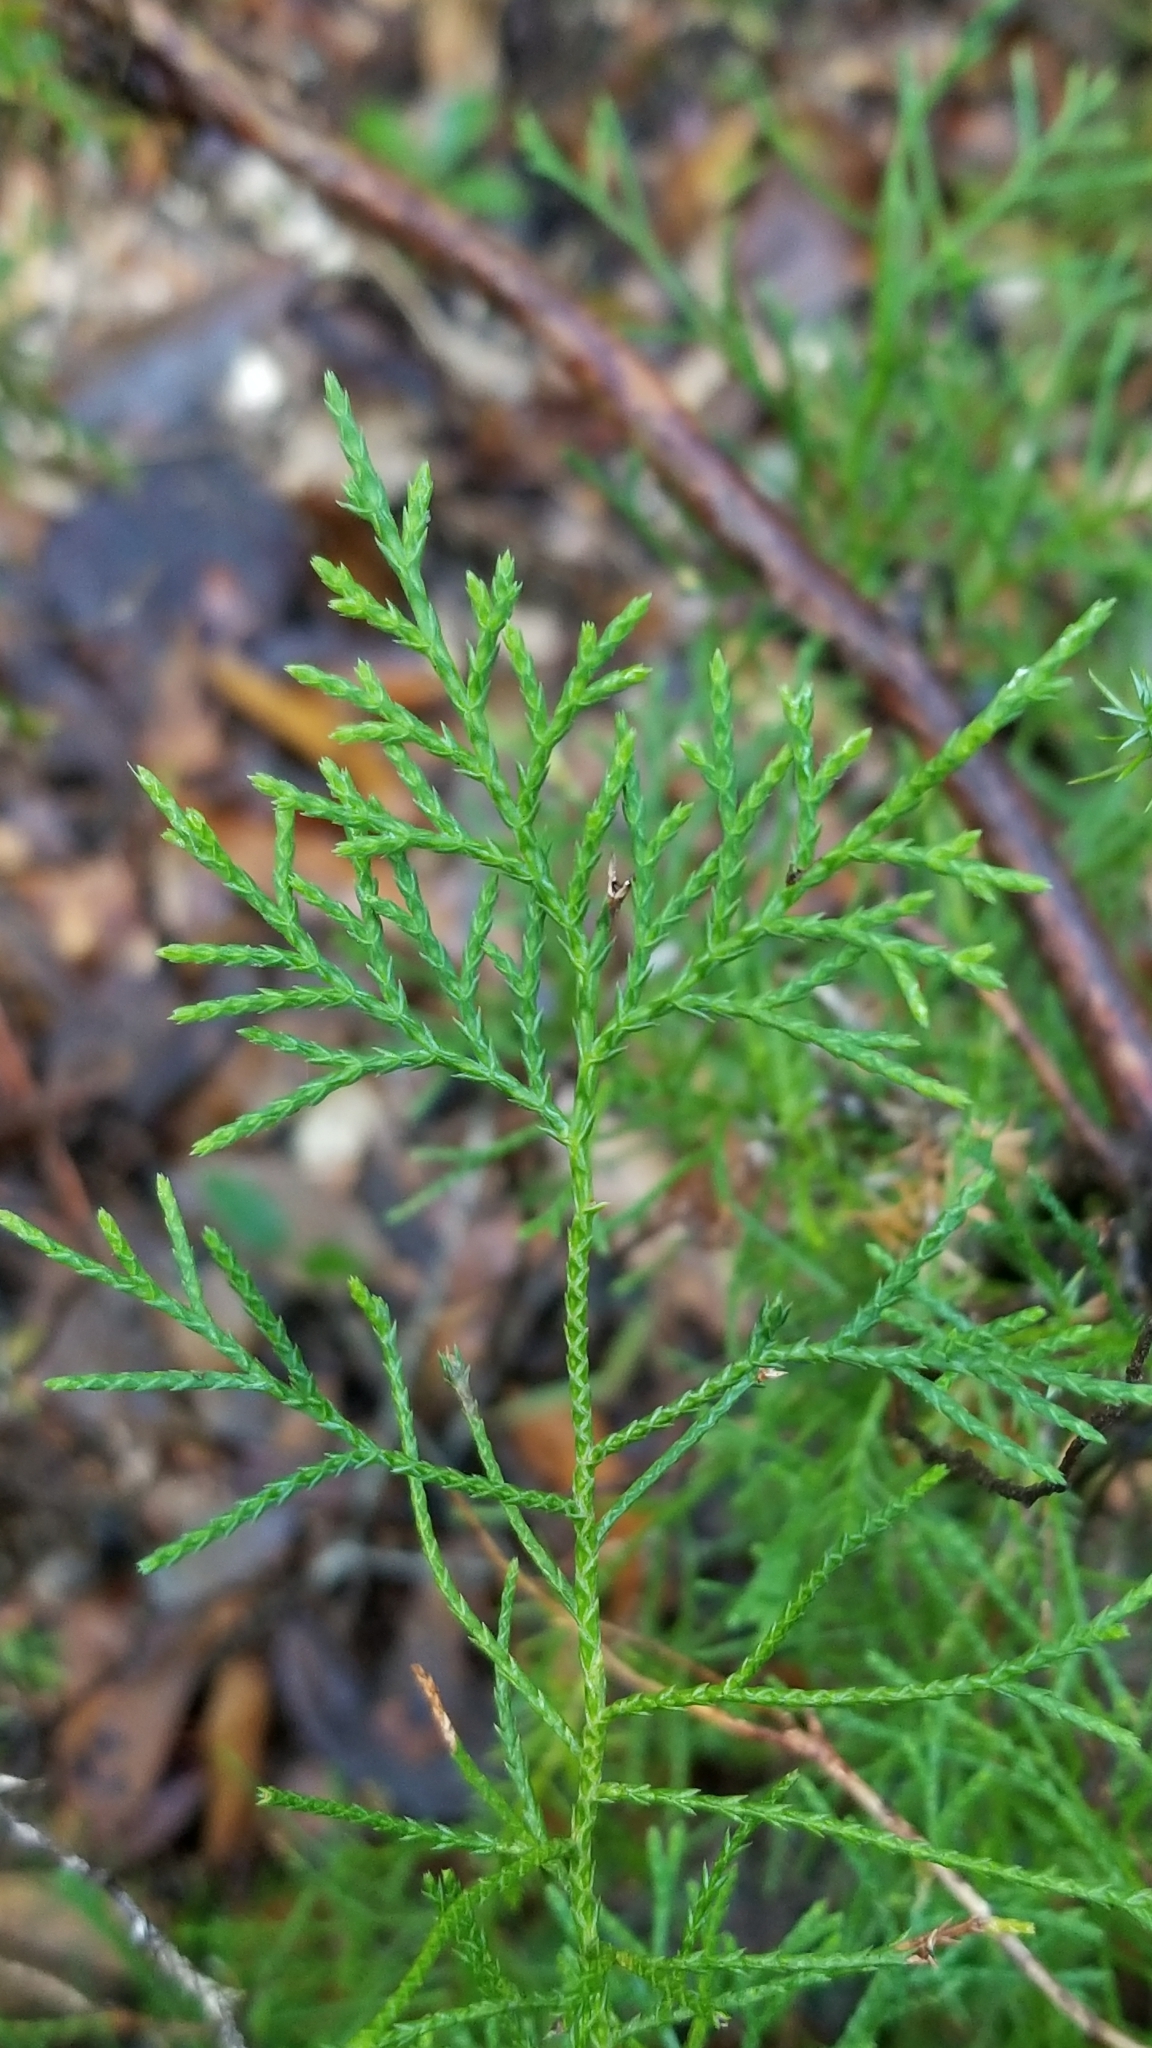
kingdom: Plantae
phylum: Tracheophyta
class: Pinopsida
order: Pinales
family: Cupressaceae
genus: Juniperus
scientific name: Juniperus virginiana
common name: Red juniper
